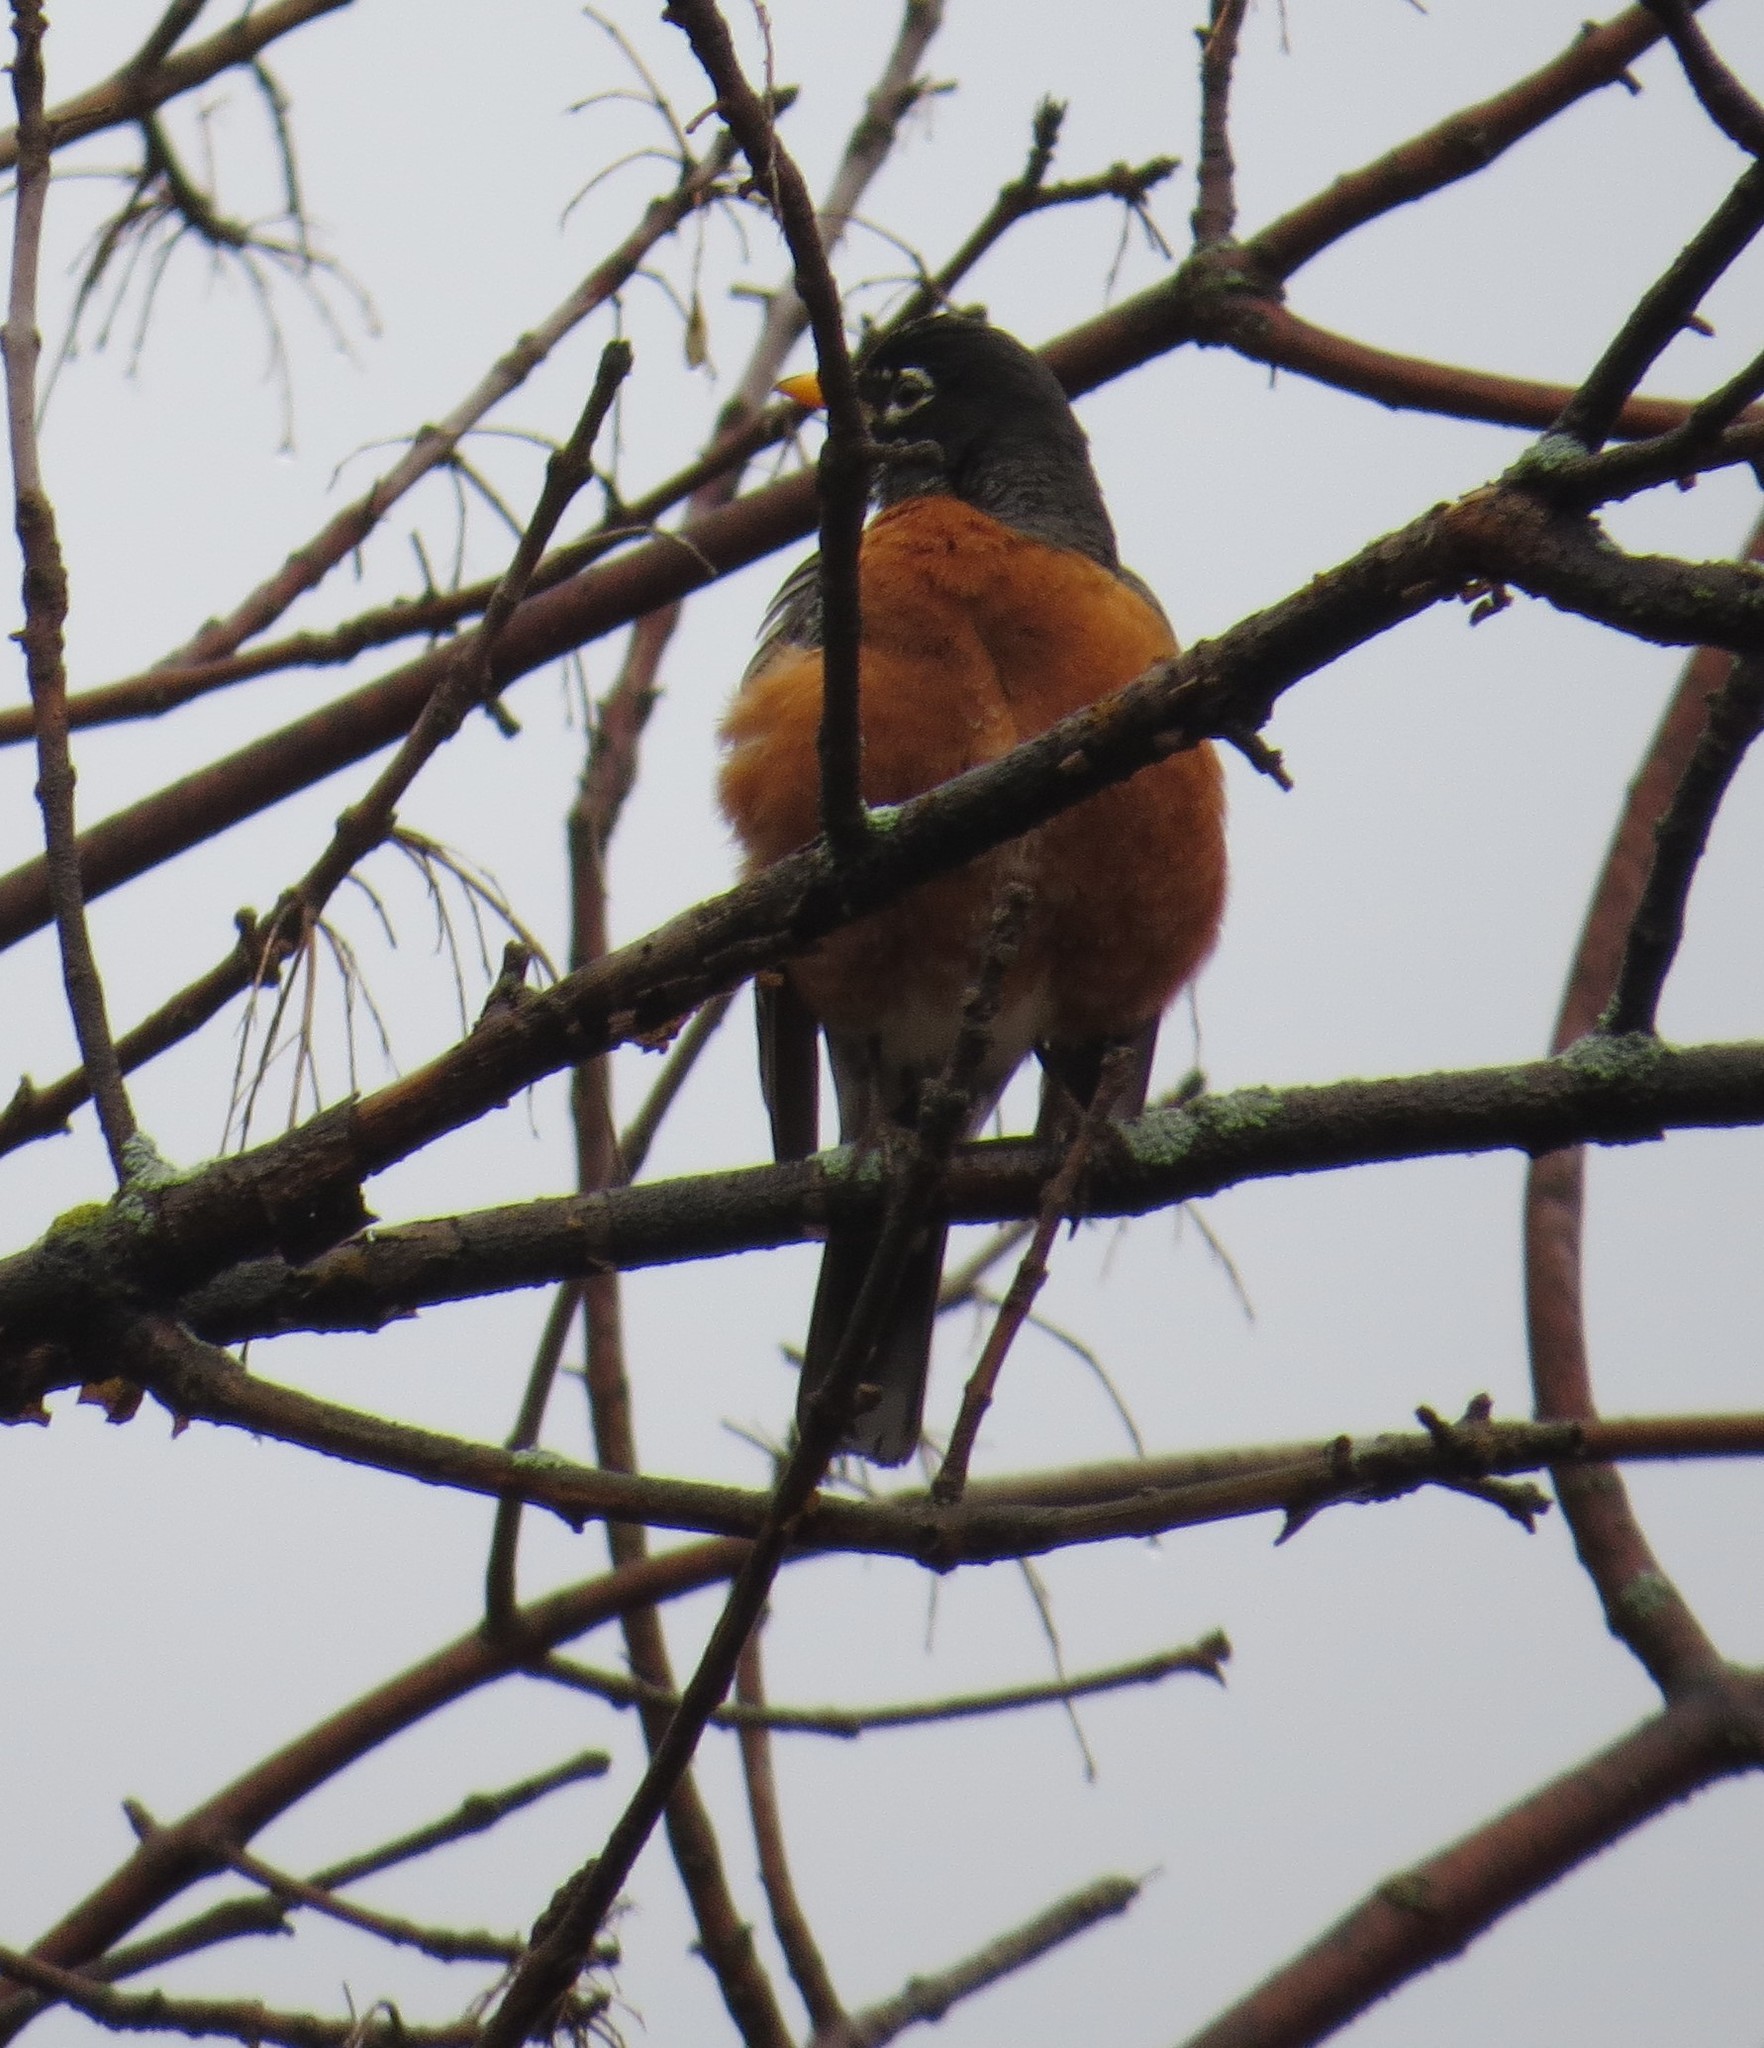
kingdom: Animalia
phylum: Chordata
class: Aves
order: Passeriformes
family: Turdidae
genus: Turdus
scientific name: Turdus migratorius
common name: American robin
